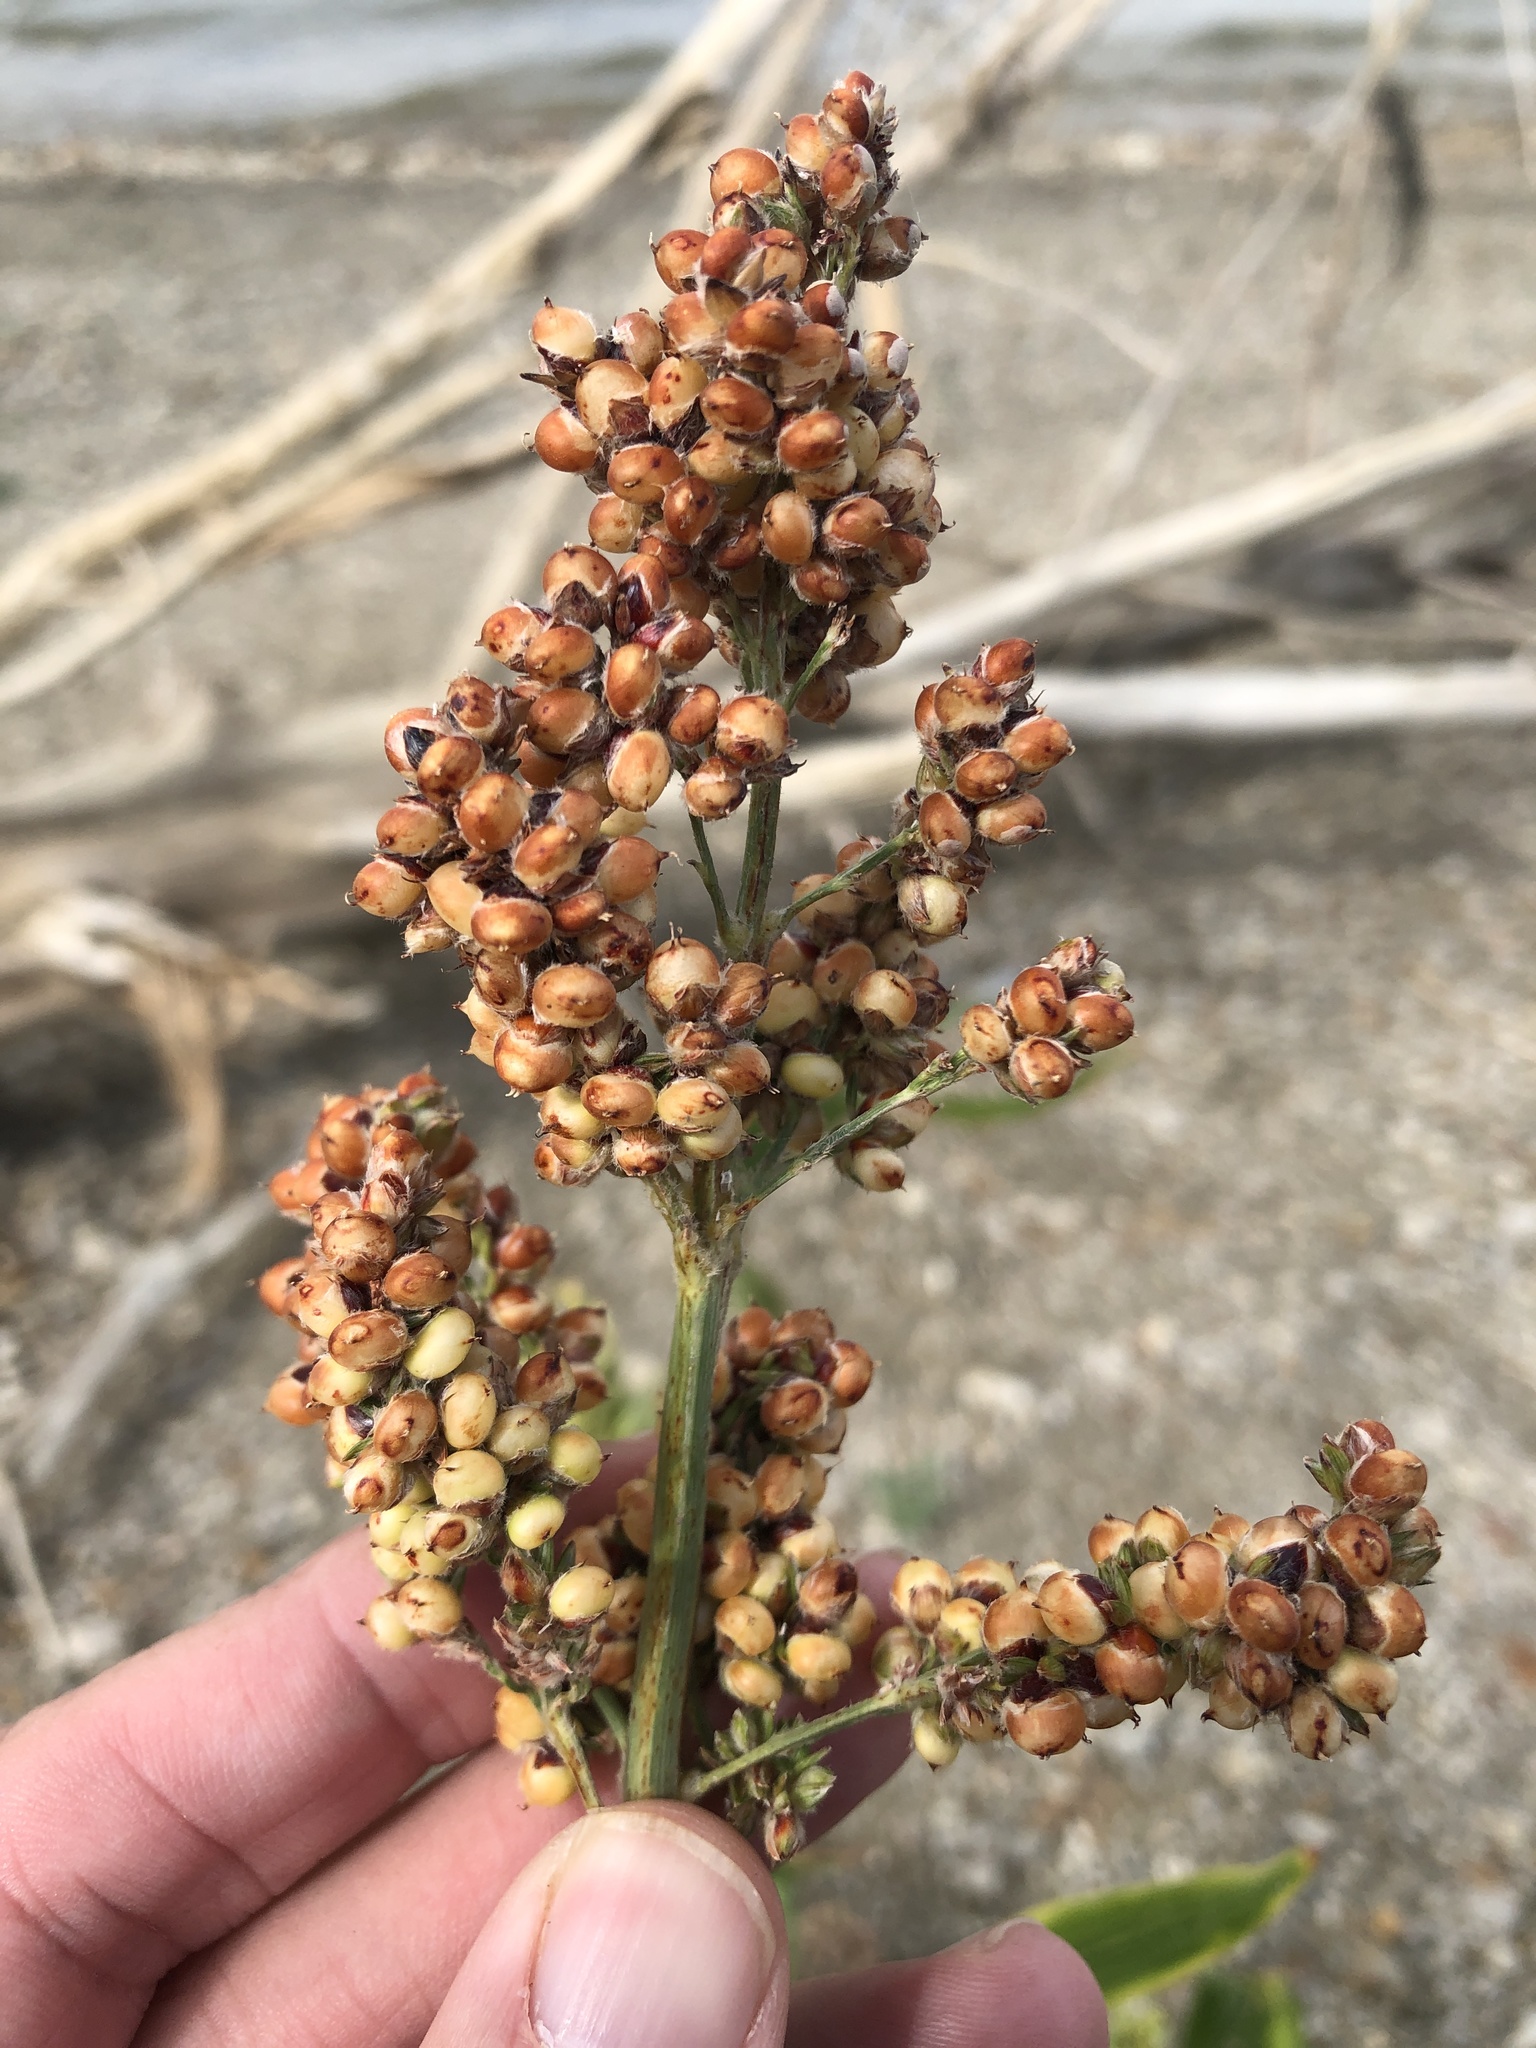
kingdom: Plantae
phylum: Tracheophyta
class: Liliopsida
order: Poales
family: Poaceae
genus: Sorghum
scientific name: Sorghum bicolor
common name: Sorghum
